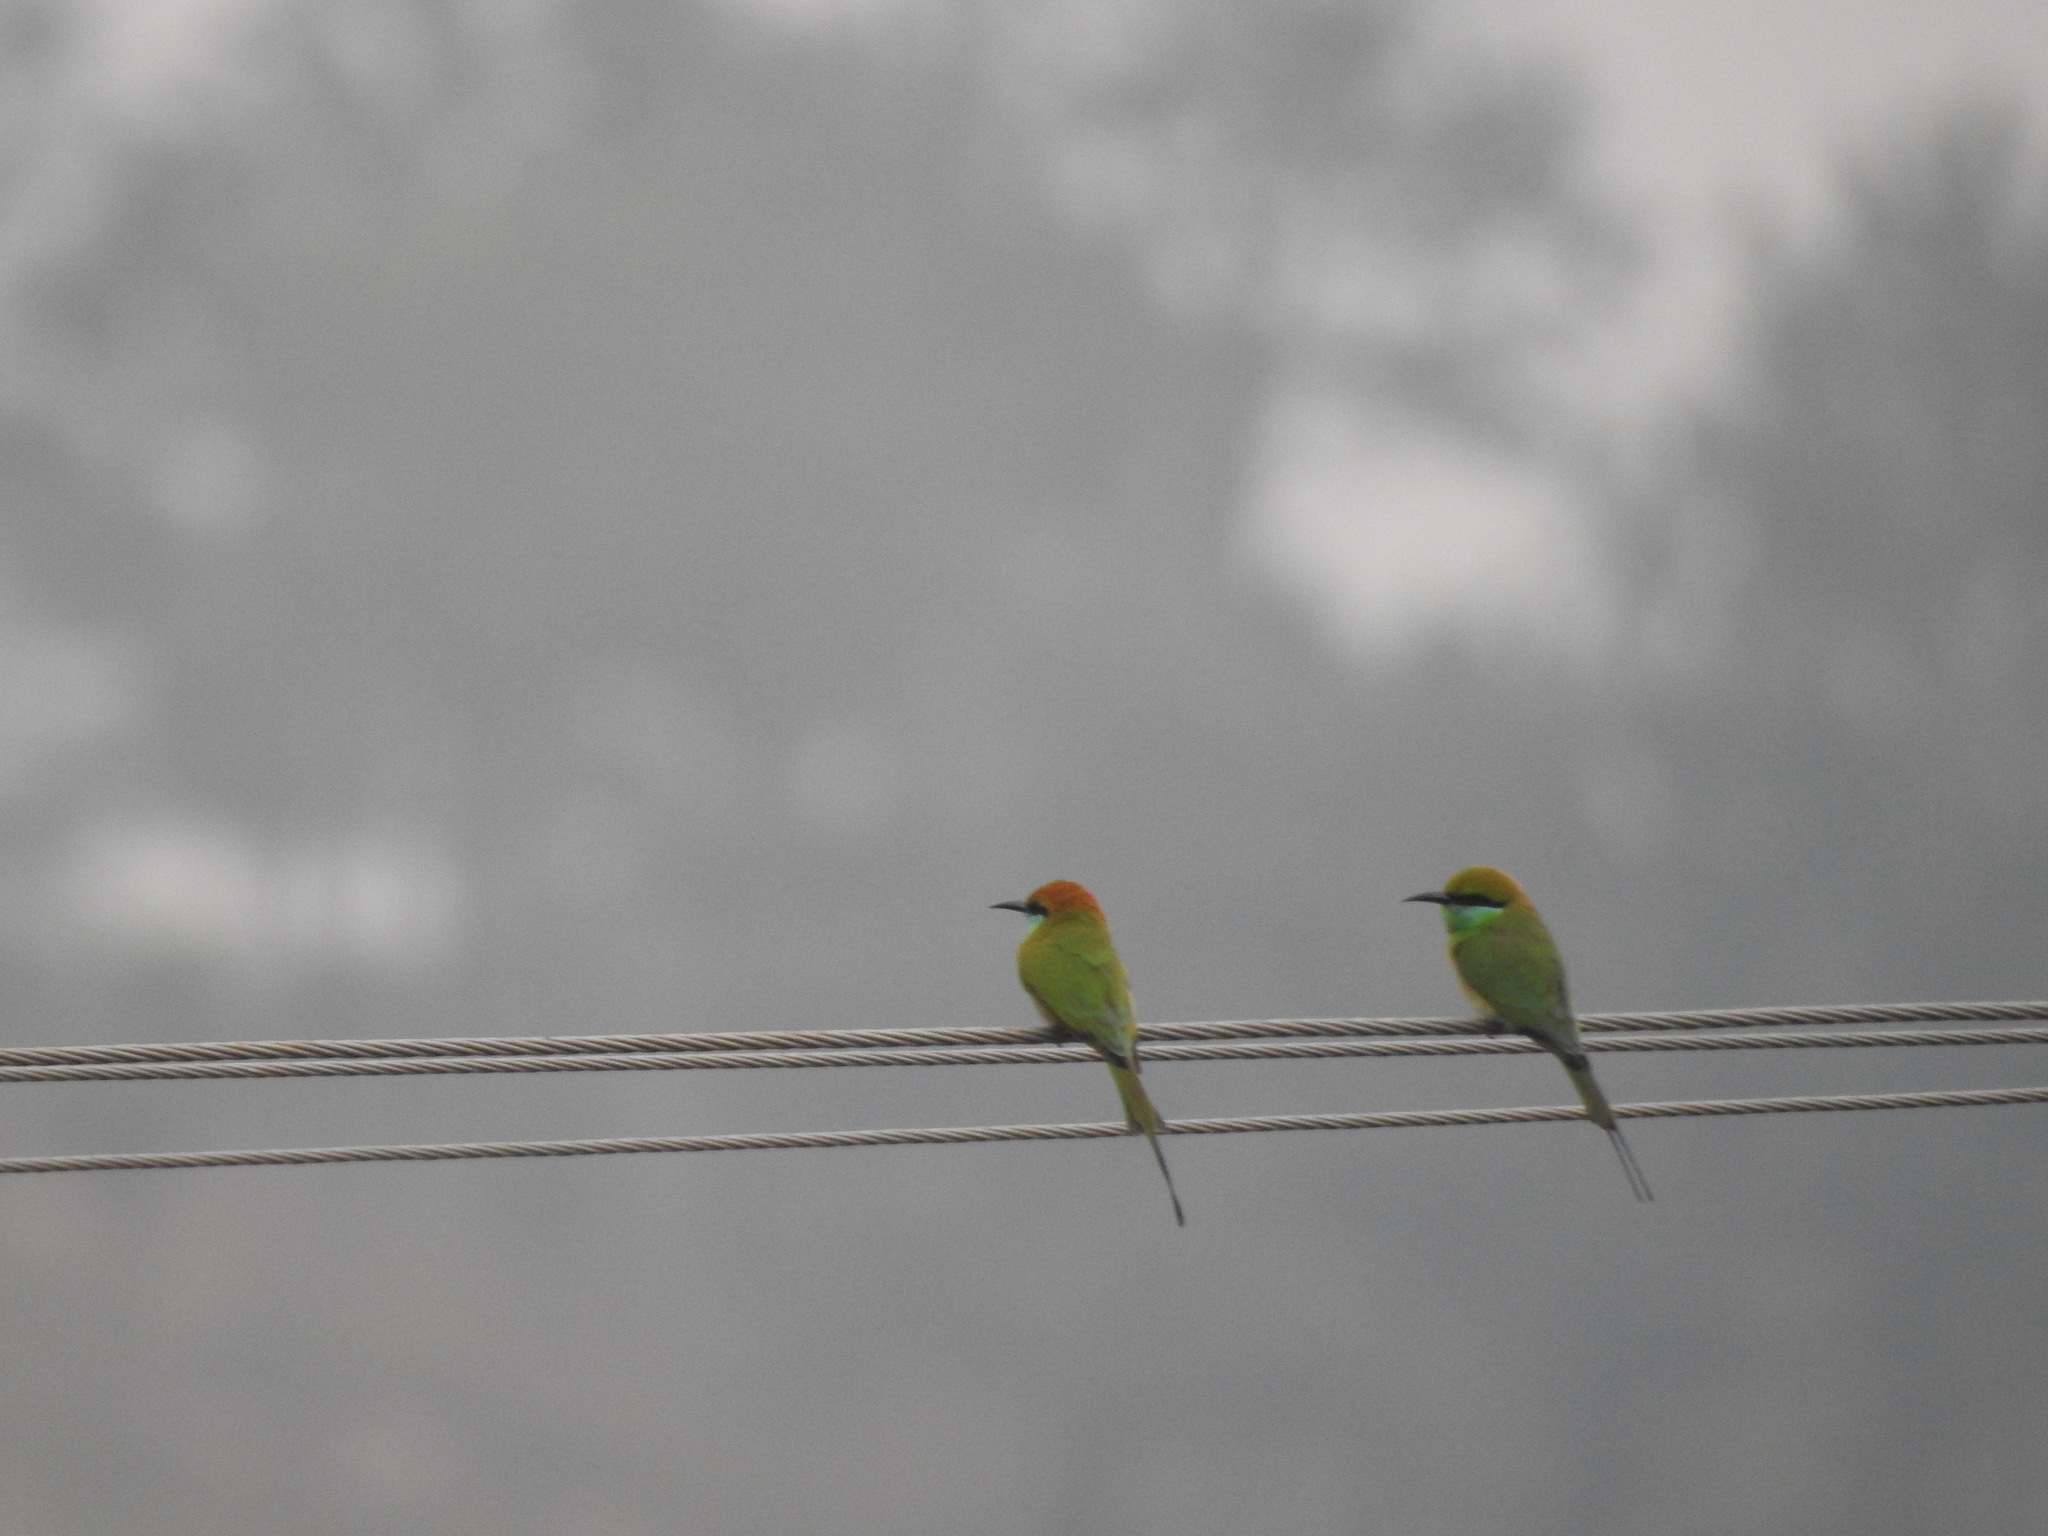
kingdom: Animalia
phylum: Chordata
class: Aves
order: Coraciiformes
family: Meropidae
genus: Merops
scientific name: Merops orientalis
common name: Green bee-eater
